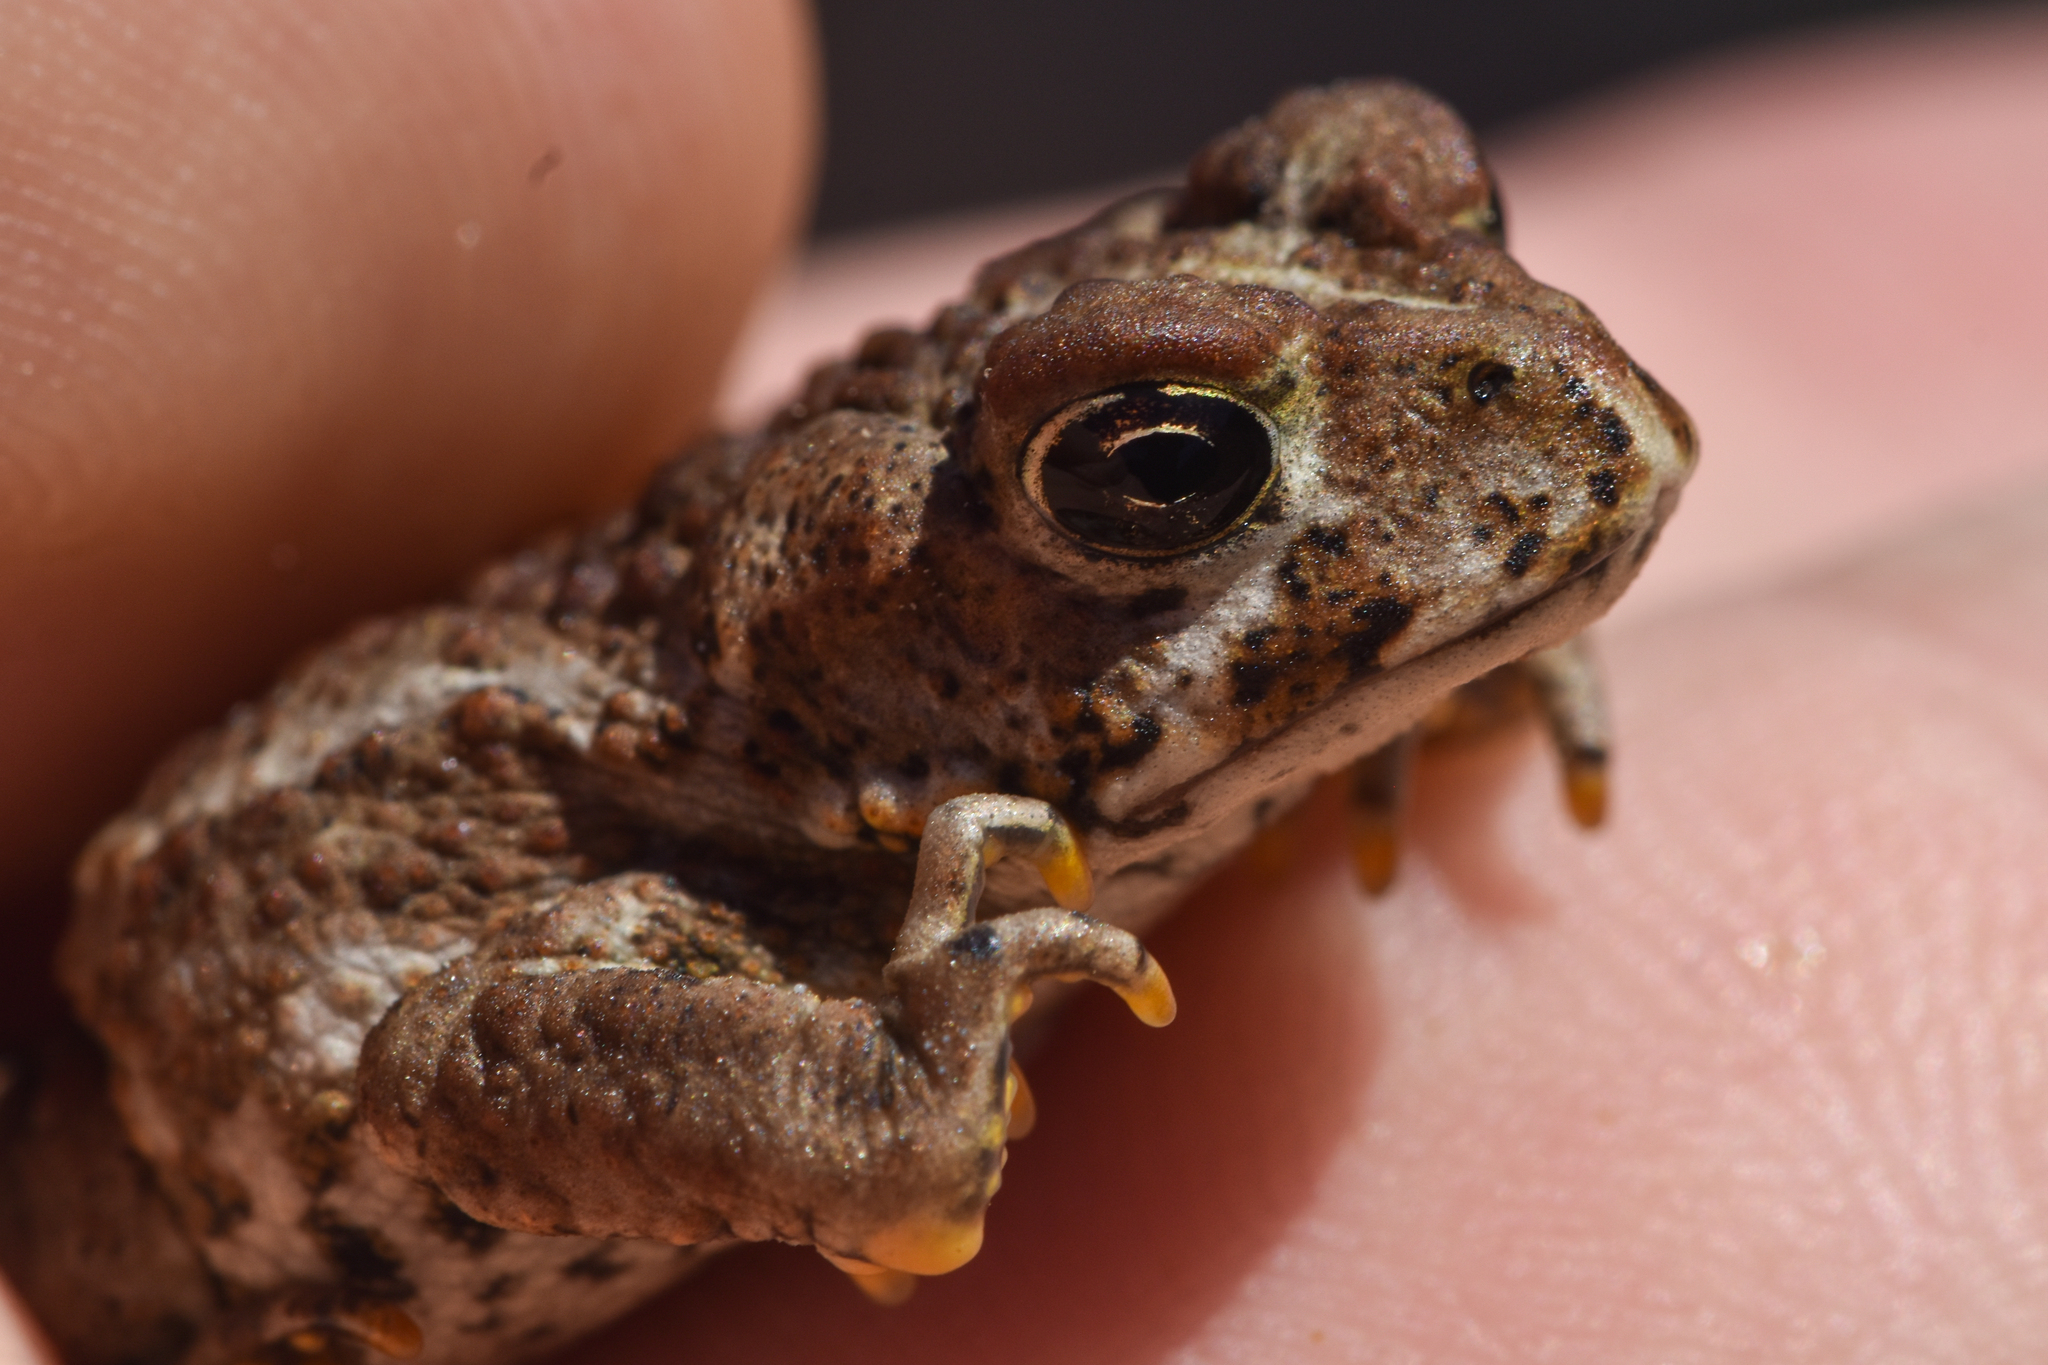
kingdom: Animalia
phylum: Chordata
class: Amphibia
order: Anura
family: Bufonidae
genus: Anaxyrus
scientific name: Anaxyrus boreas
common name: Western toad
